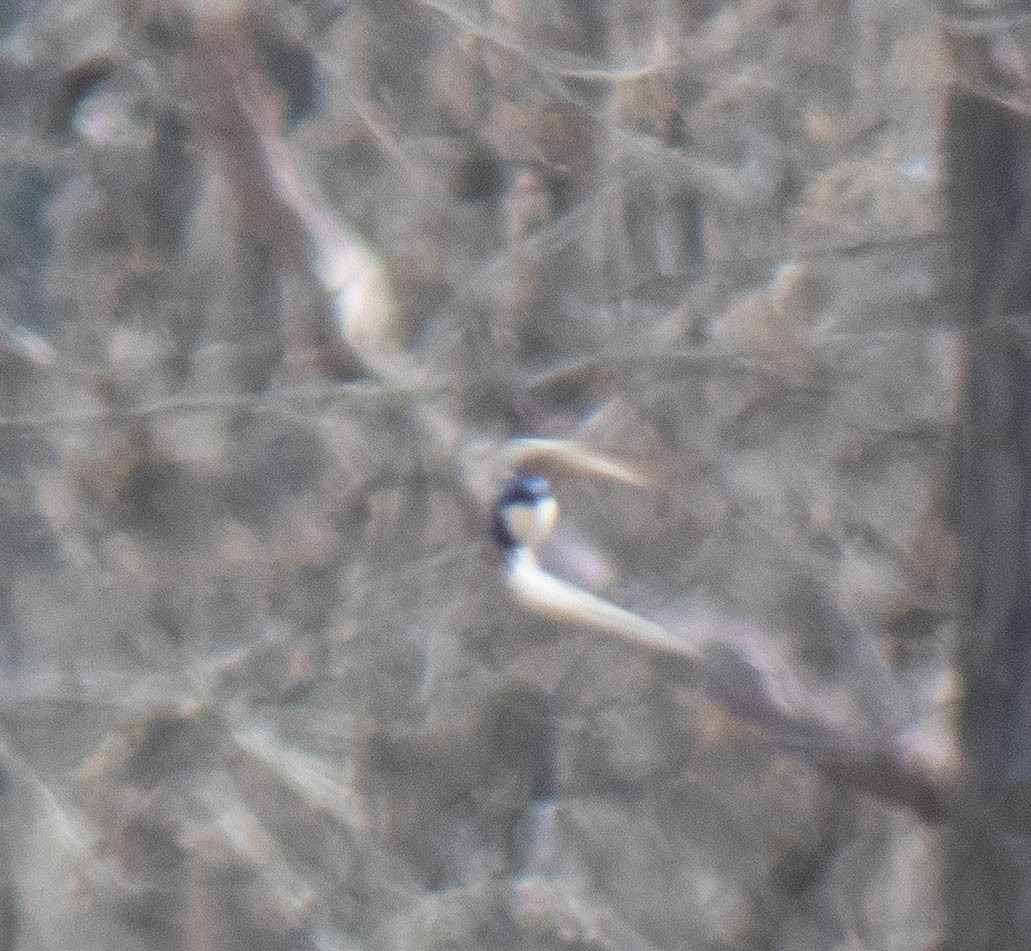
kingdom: Animalia
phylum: Chordata
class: Aves
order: Passeriformes
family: Hirundinidae
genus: Tachycineta
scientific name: Tachycineta bicolor
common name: Tree swallow
